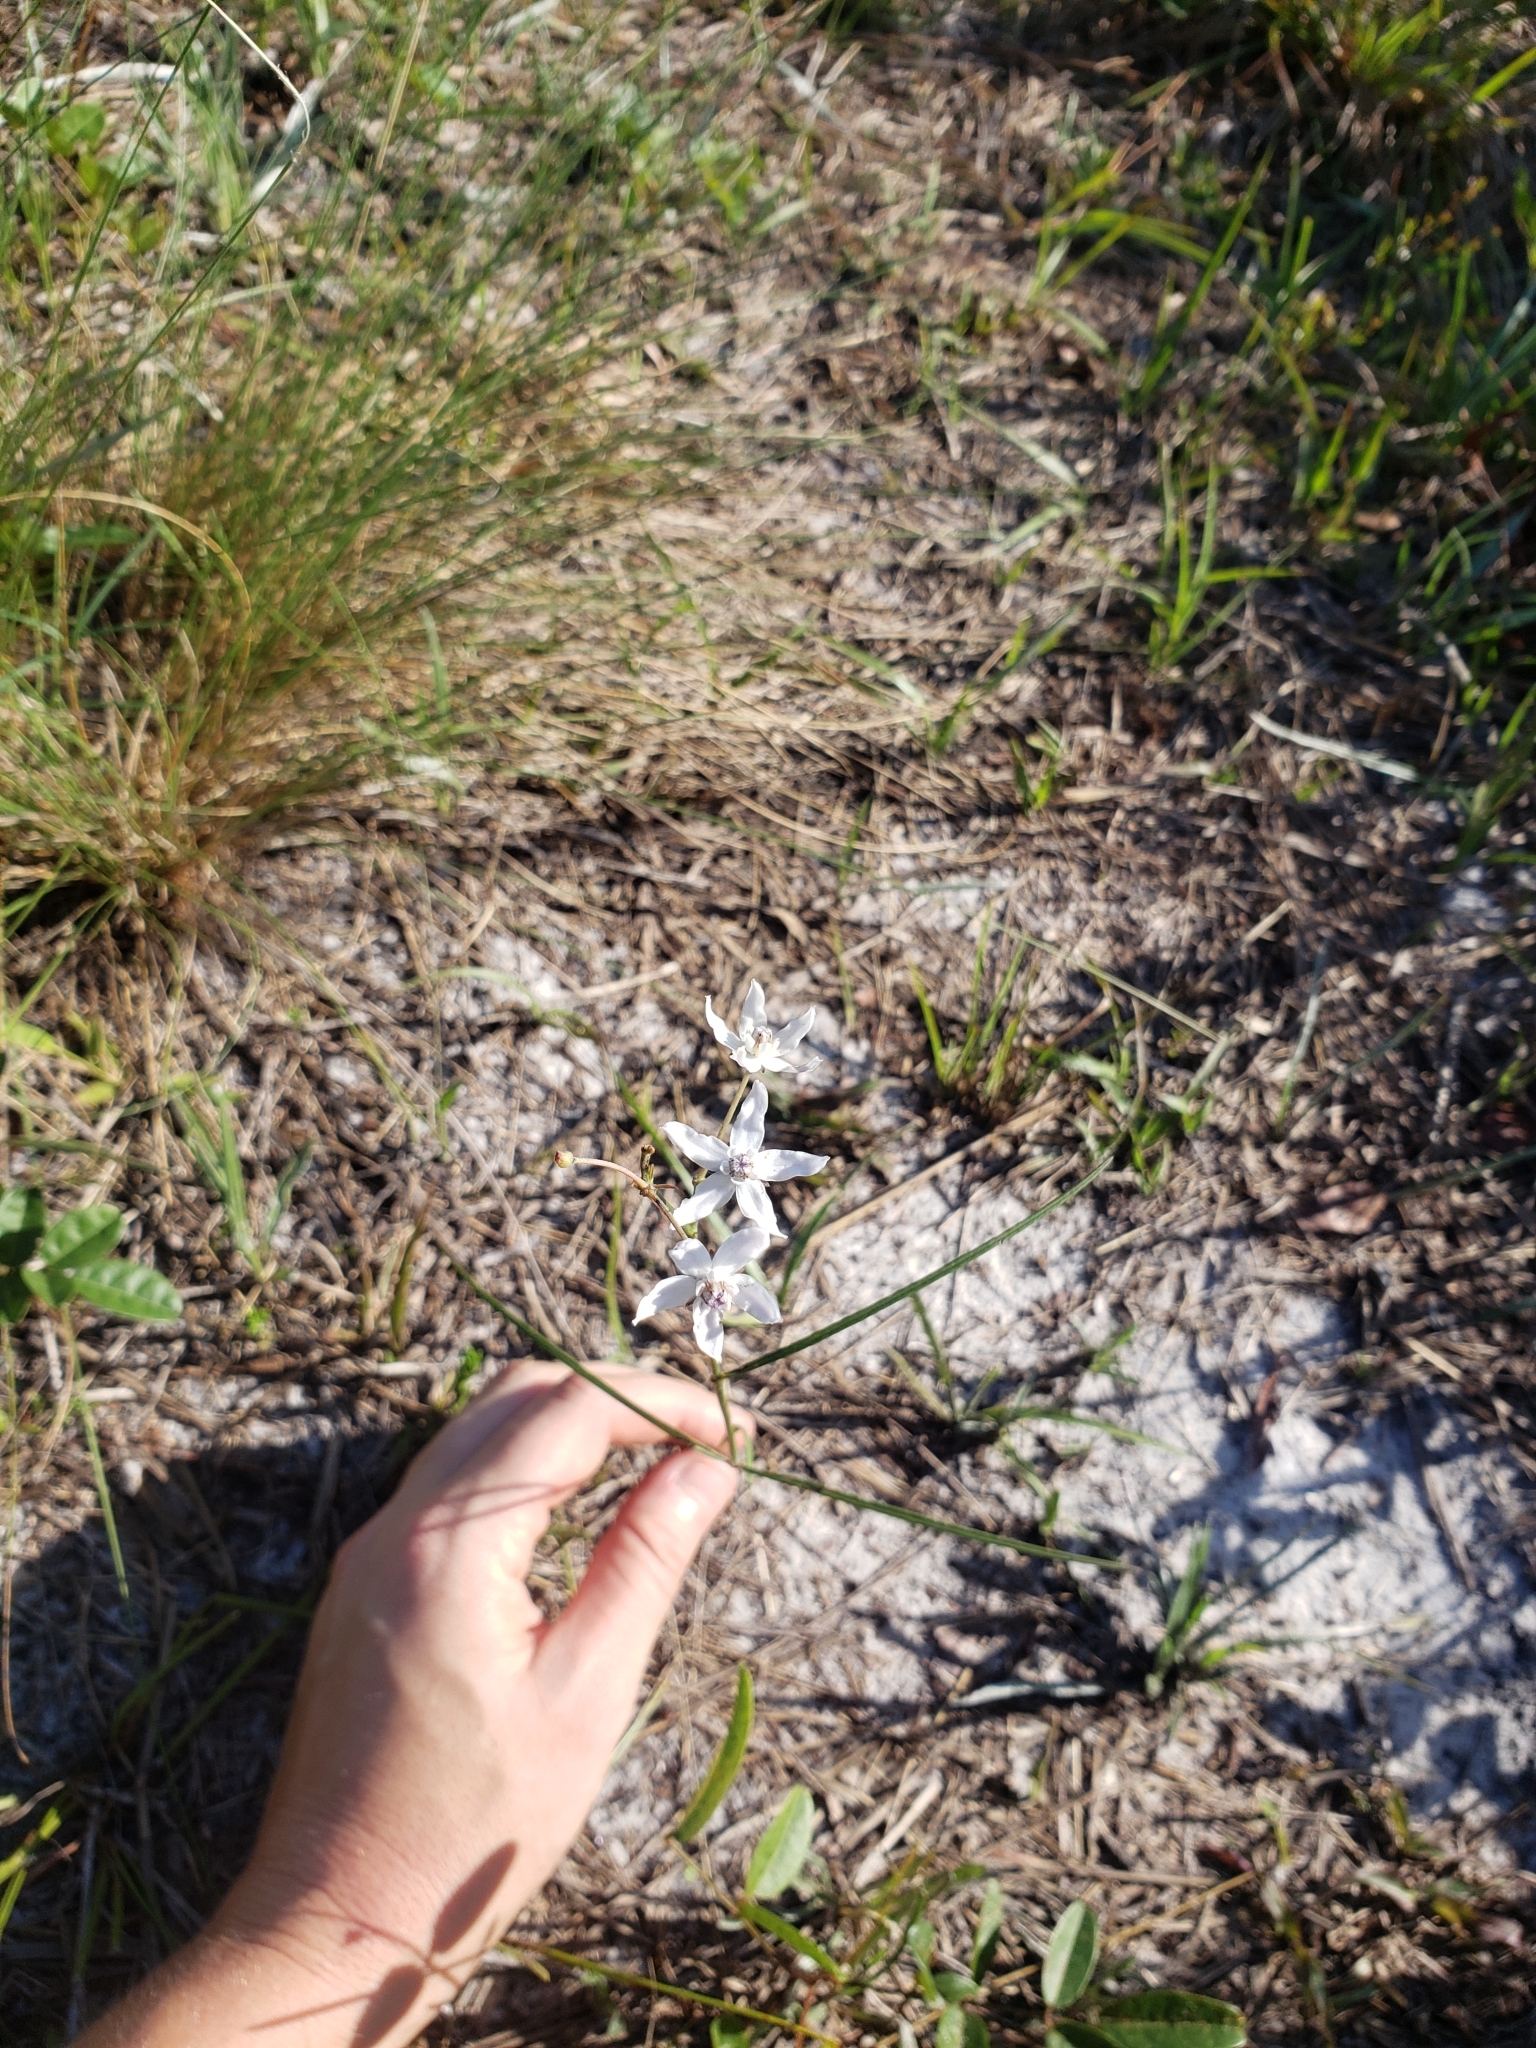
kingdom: Plantae
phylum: Tracheophyta
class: Magnoliopsida
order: Gentianales
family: Apocynaceae
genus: Asclepias
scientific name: Asclepias feayi
